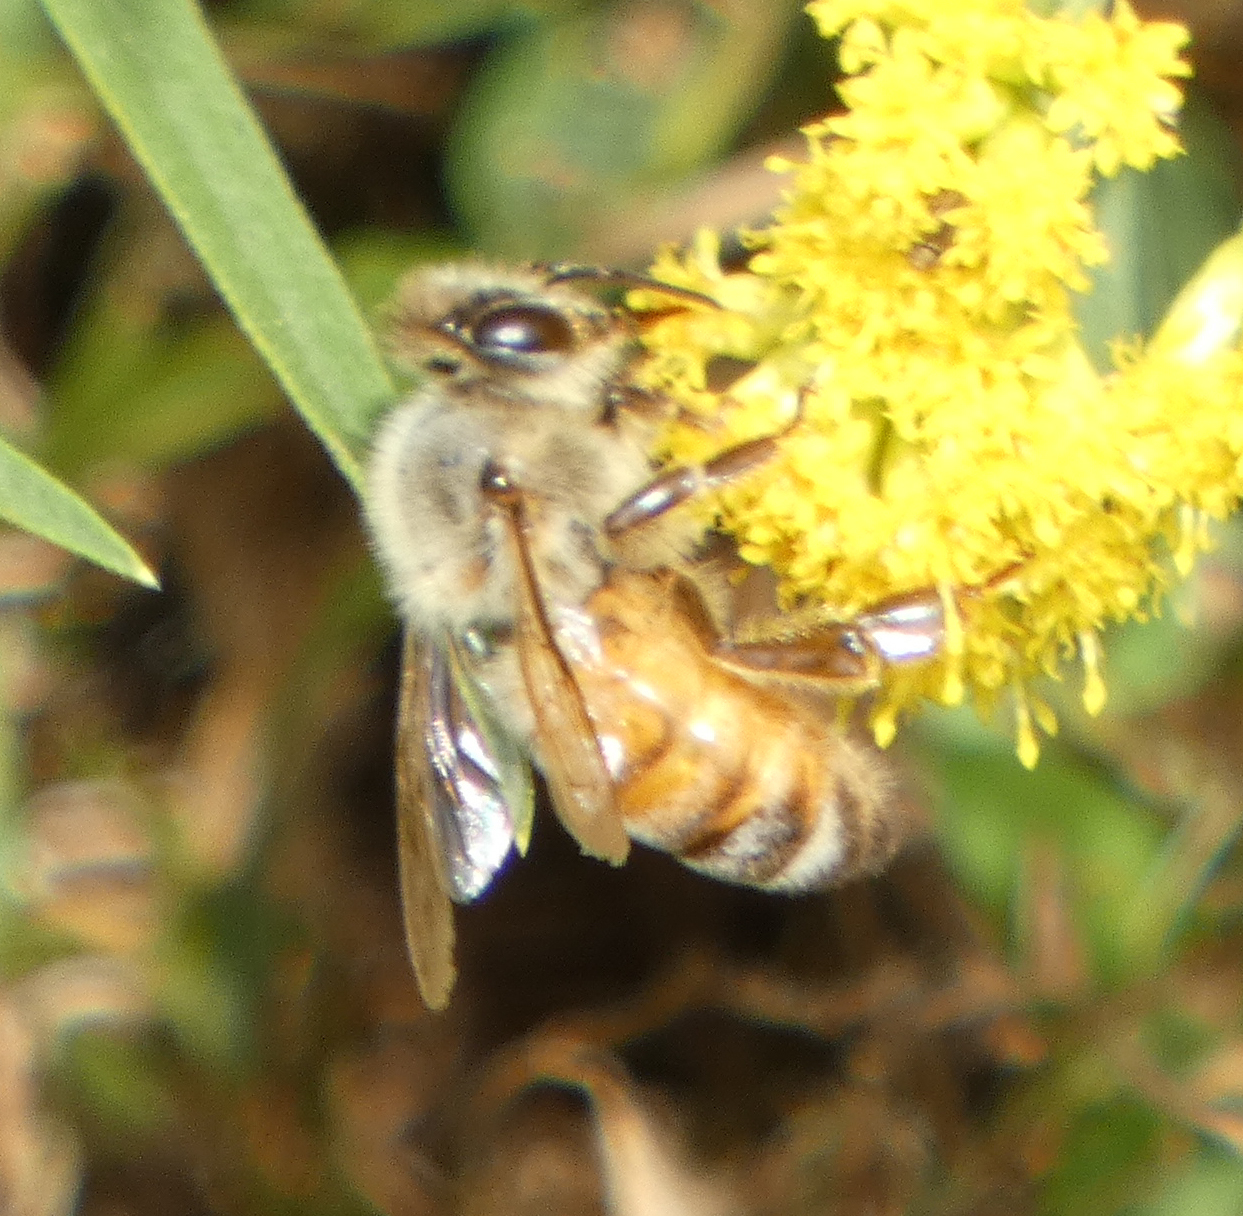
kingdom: Animalia
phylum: Arthropoda
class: Insecta
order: Hymenoptera
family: Apidae
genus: Apis
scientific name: Apis mellifera
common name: Honey bee
